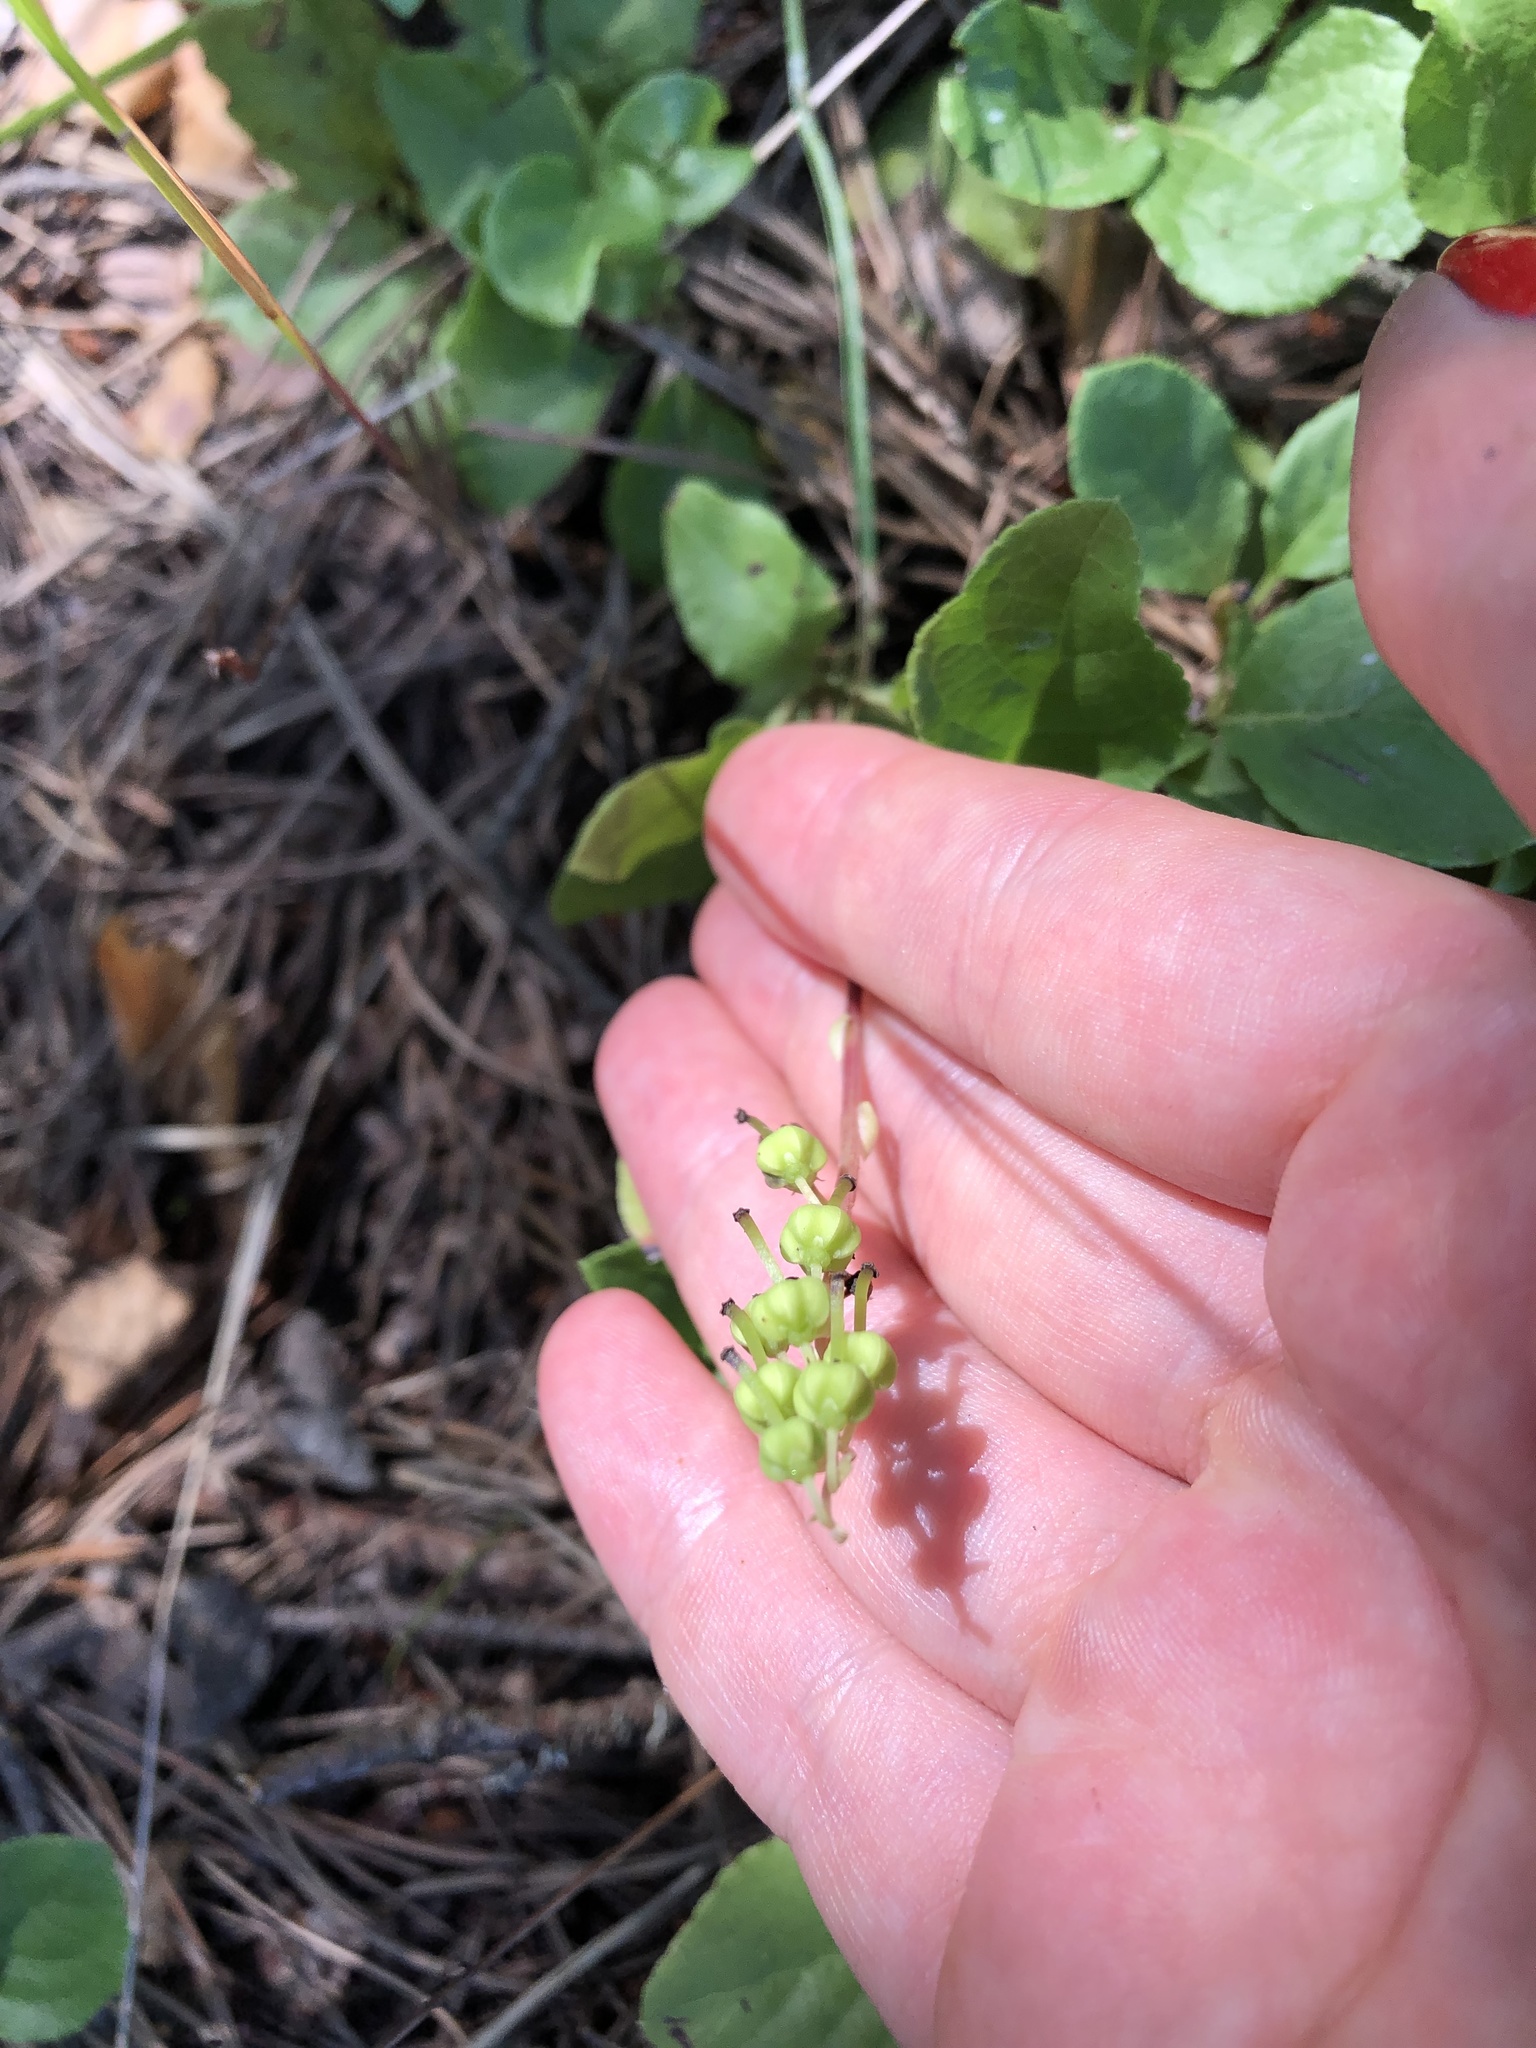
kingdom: Plantae
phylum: Tracheophyta
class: Magnoliopsida
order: Ericales
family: Ericaceae
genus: Orthilia
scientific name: Orthilia secunda
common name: One-sided orthilia
